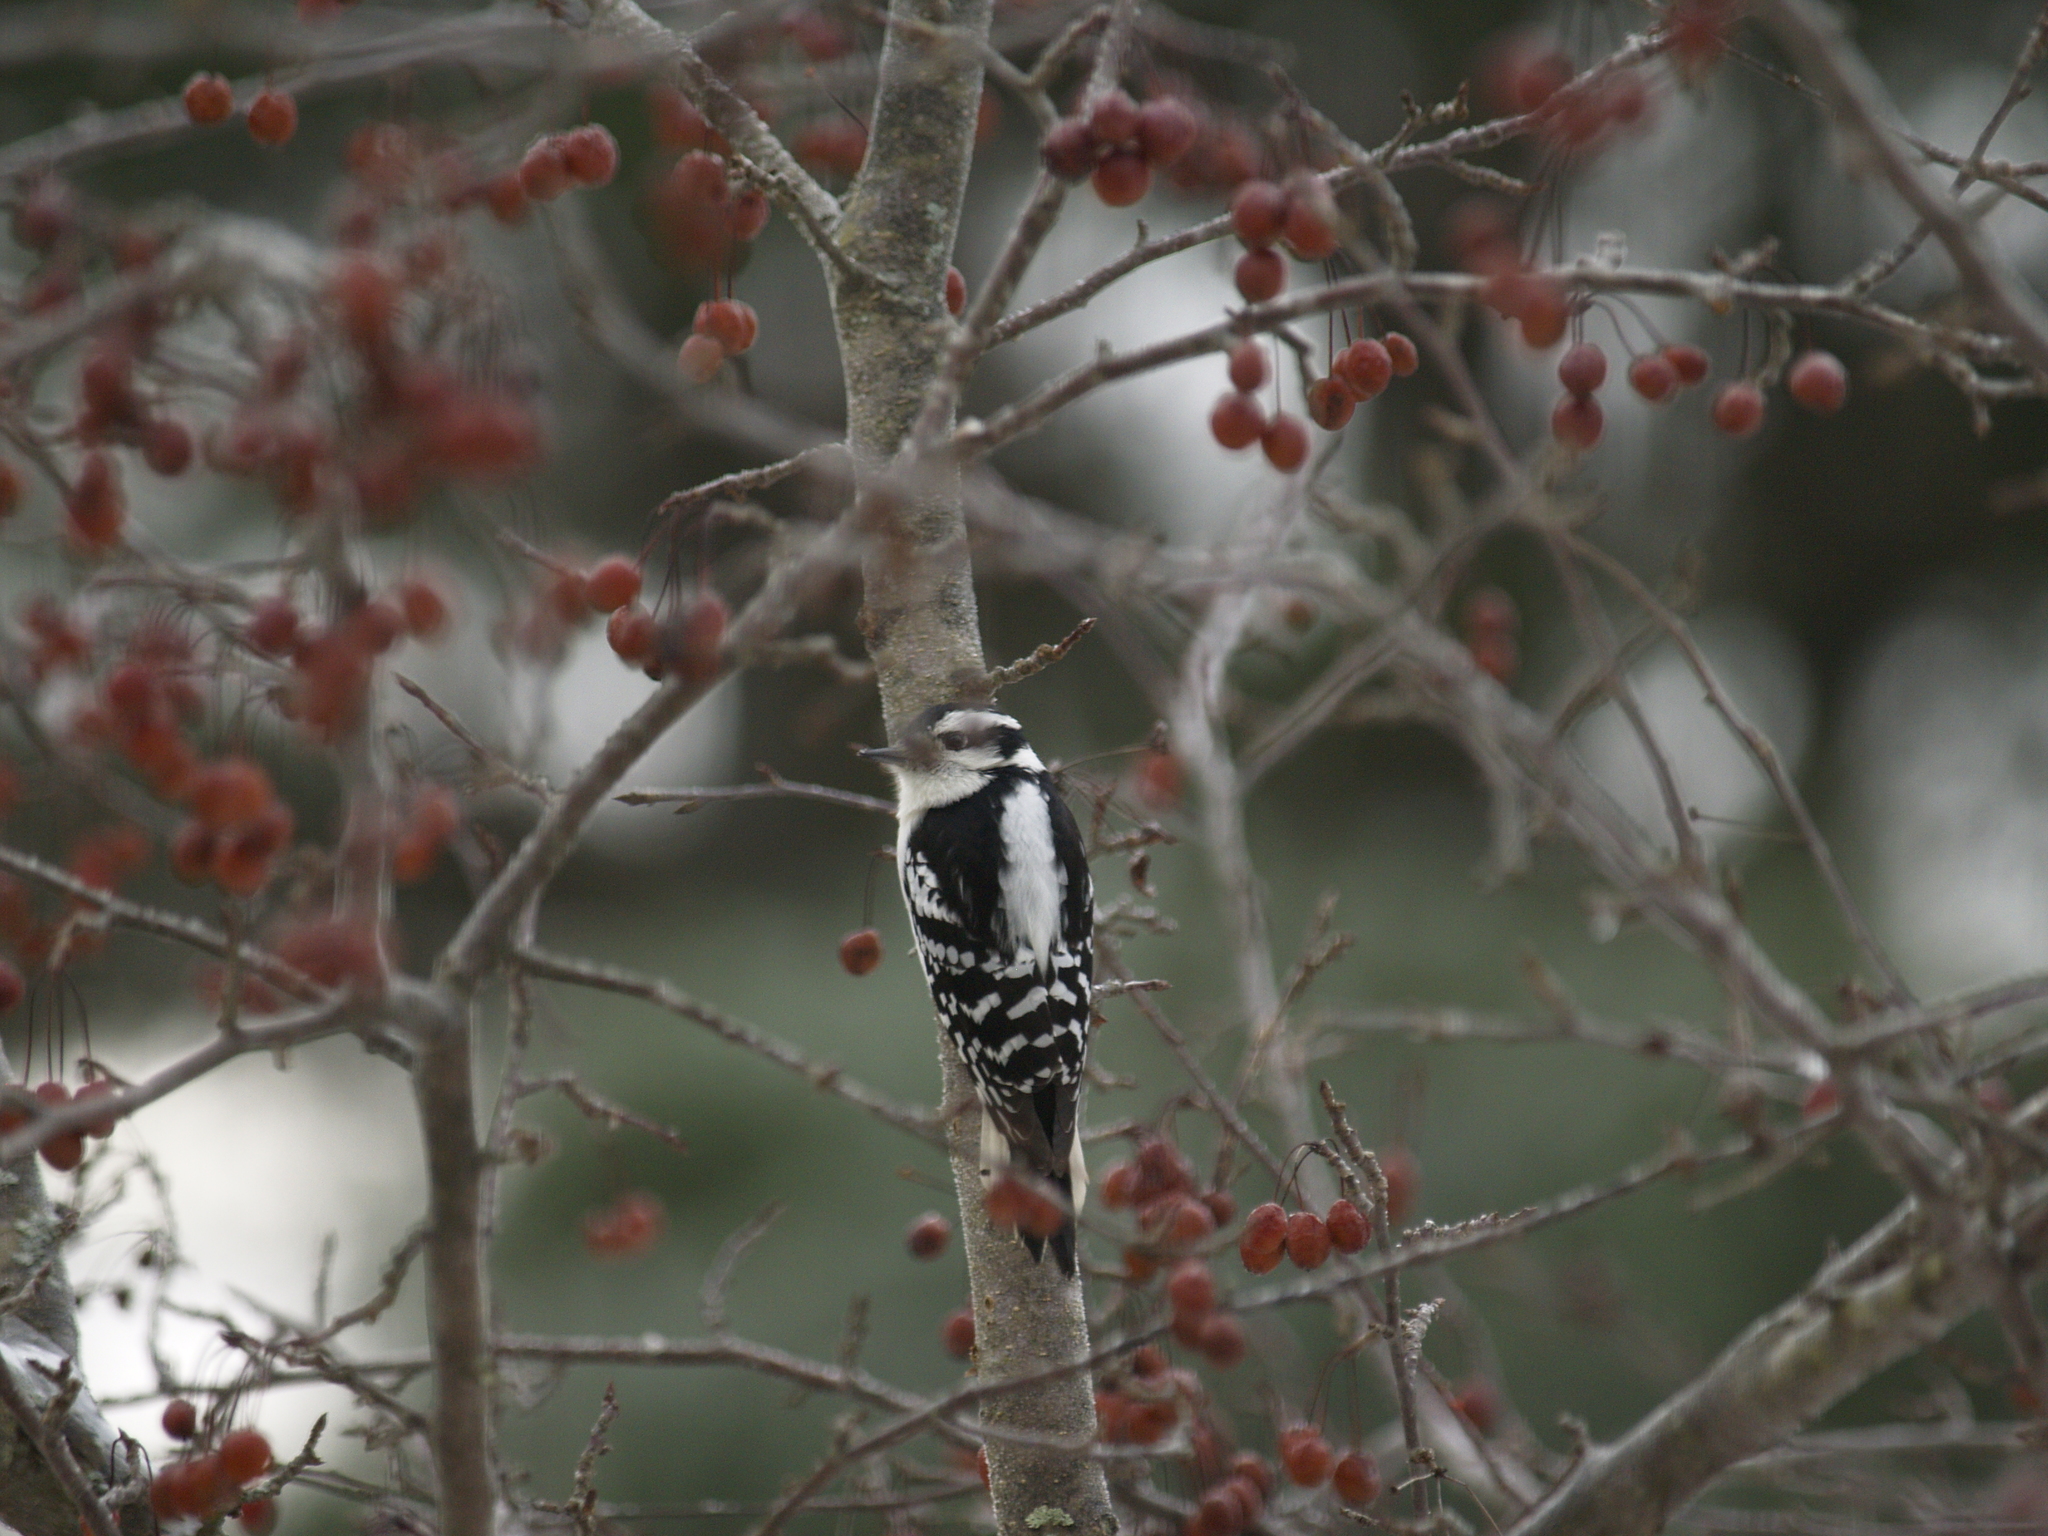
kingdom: Animalia
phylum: Chordata
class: Aves
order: Piciformes
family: Picidae
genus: Dryobates
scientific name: Dryobates pubescens
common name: Downy woodpecker
